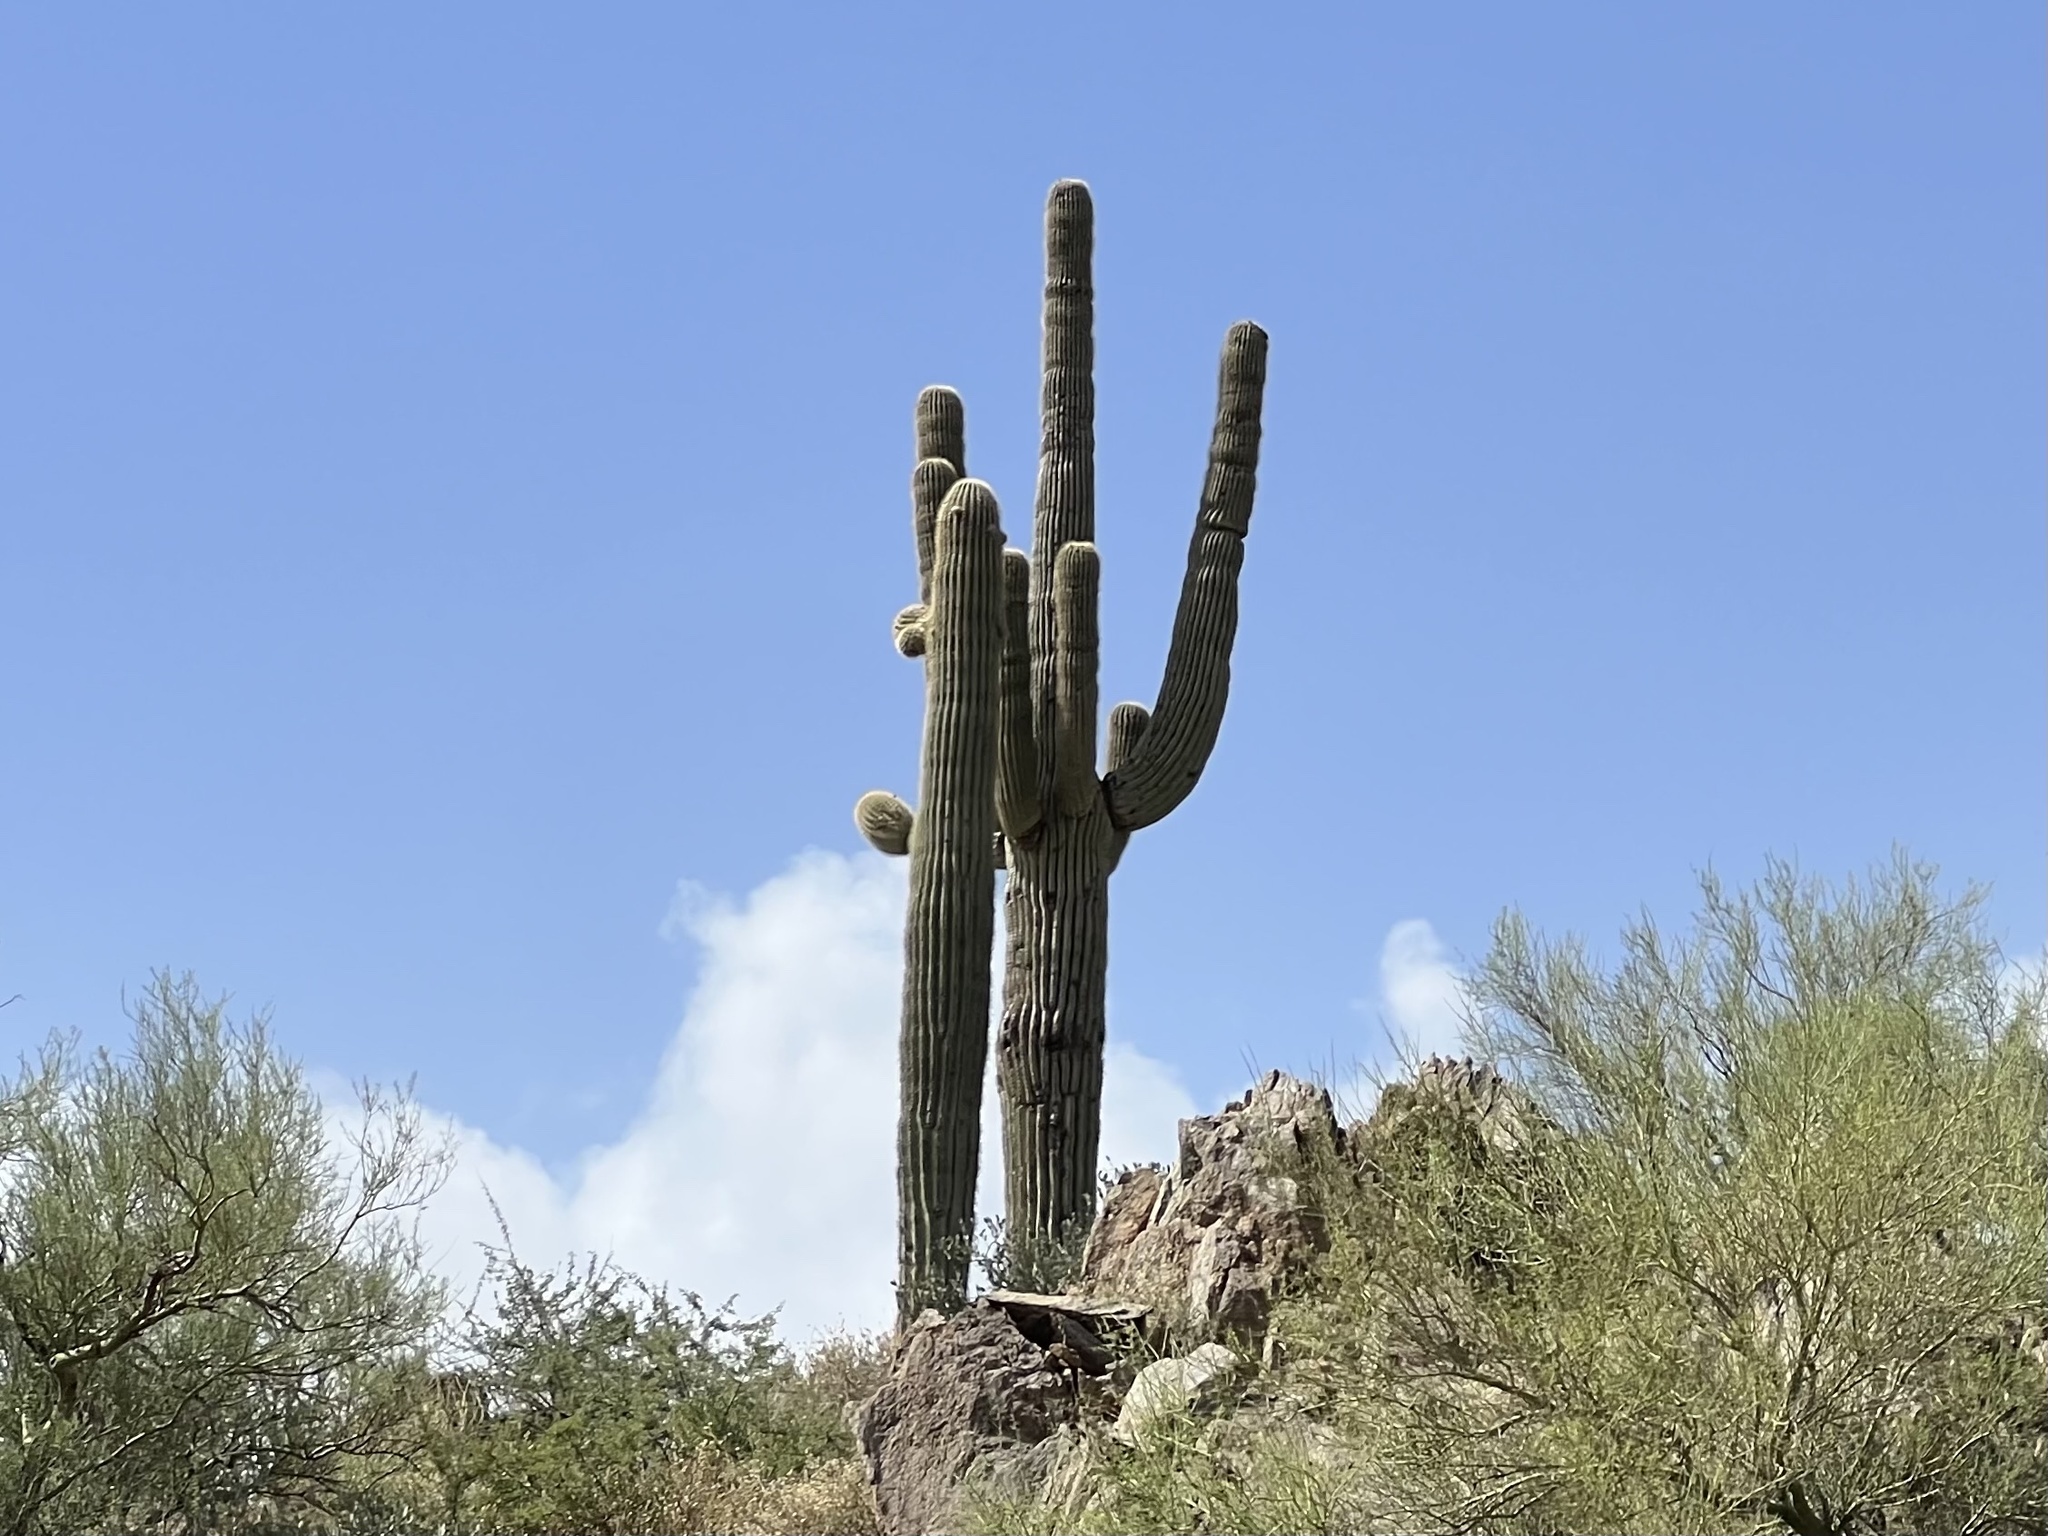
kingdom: Plantae
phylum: Tracheophyta
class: Magnoliopsida
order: Caryophyllales
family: Cactaceae
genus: Carnegiea
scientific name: Carnegiea gigantea
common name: Saguaro
